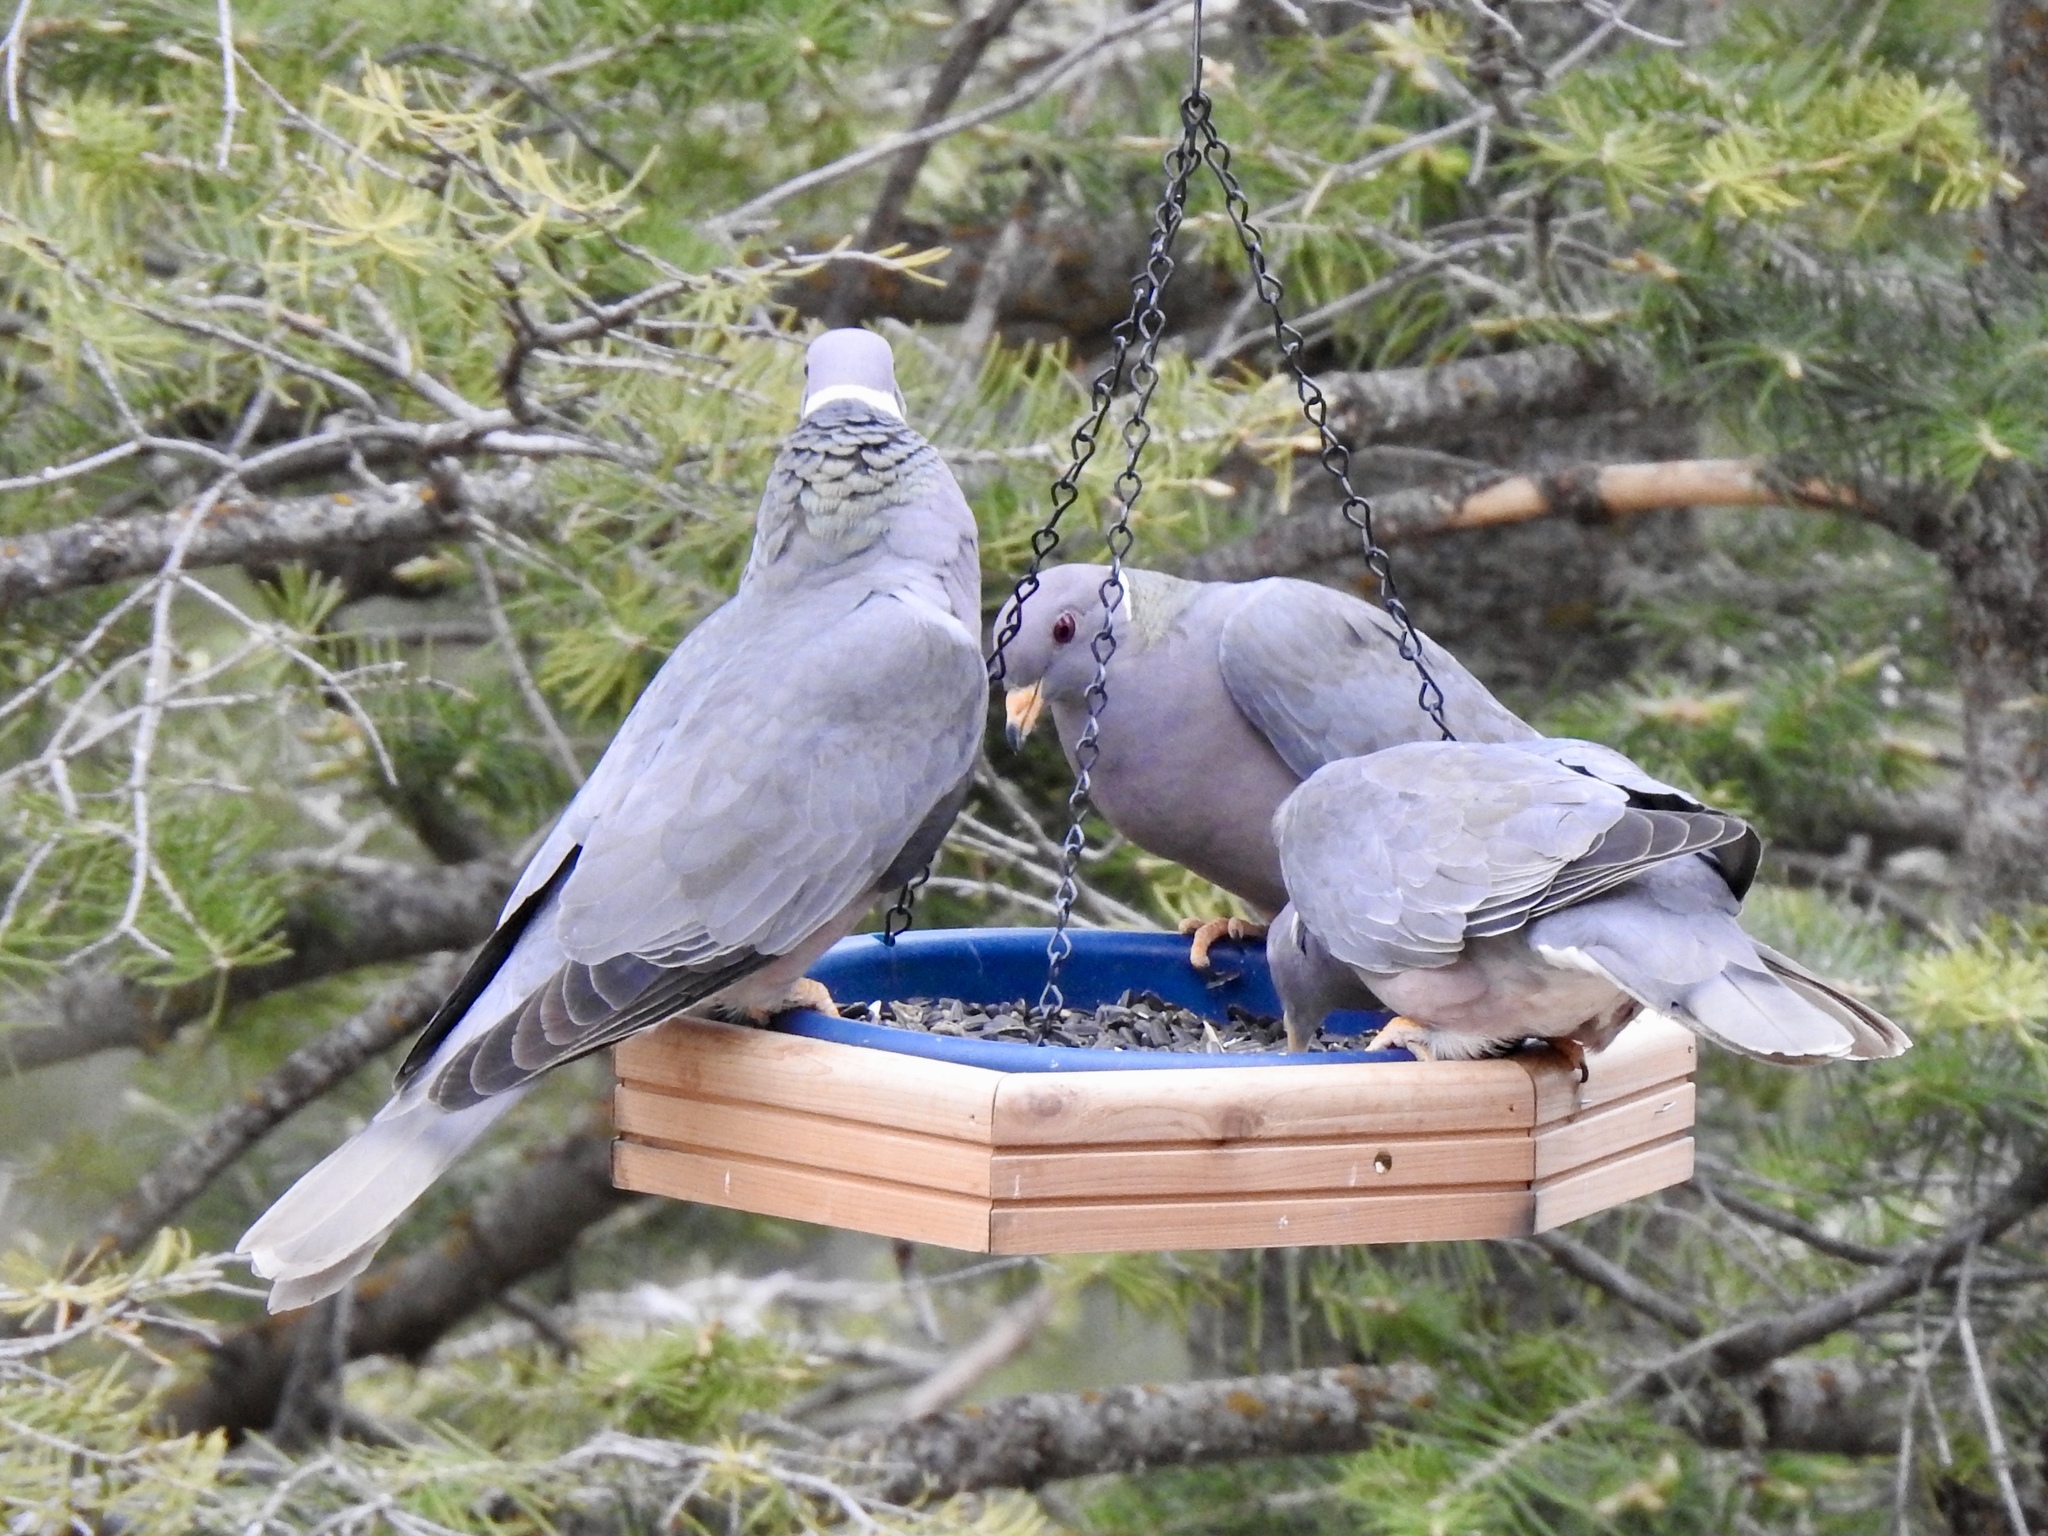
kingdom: Animalia
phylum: Chordata
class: Aves
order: Columbiformes
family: Columbidae
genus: Patagioenas
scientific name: Patagioenas fasciata
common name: Band-tailed pigeon
